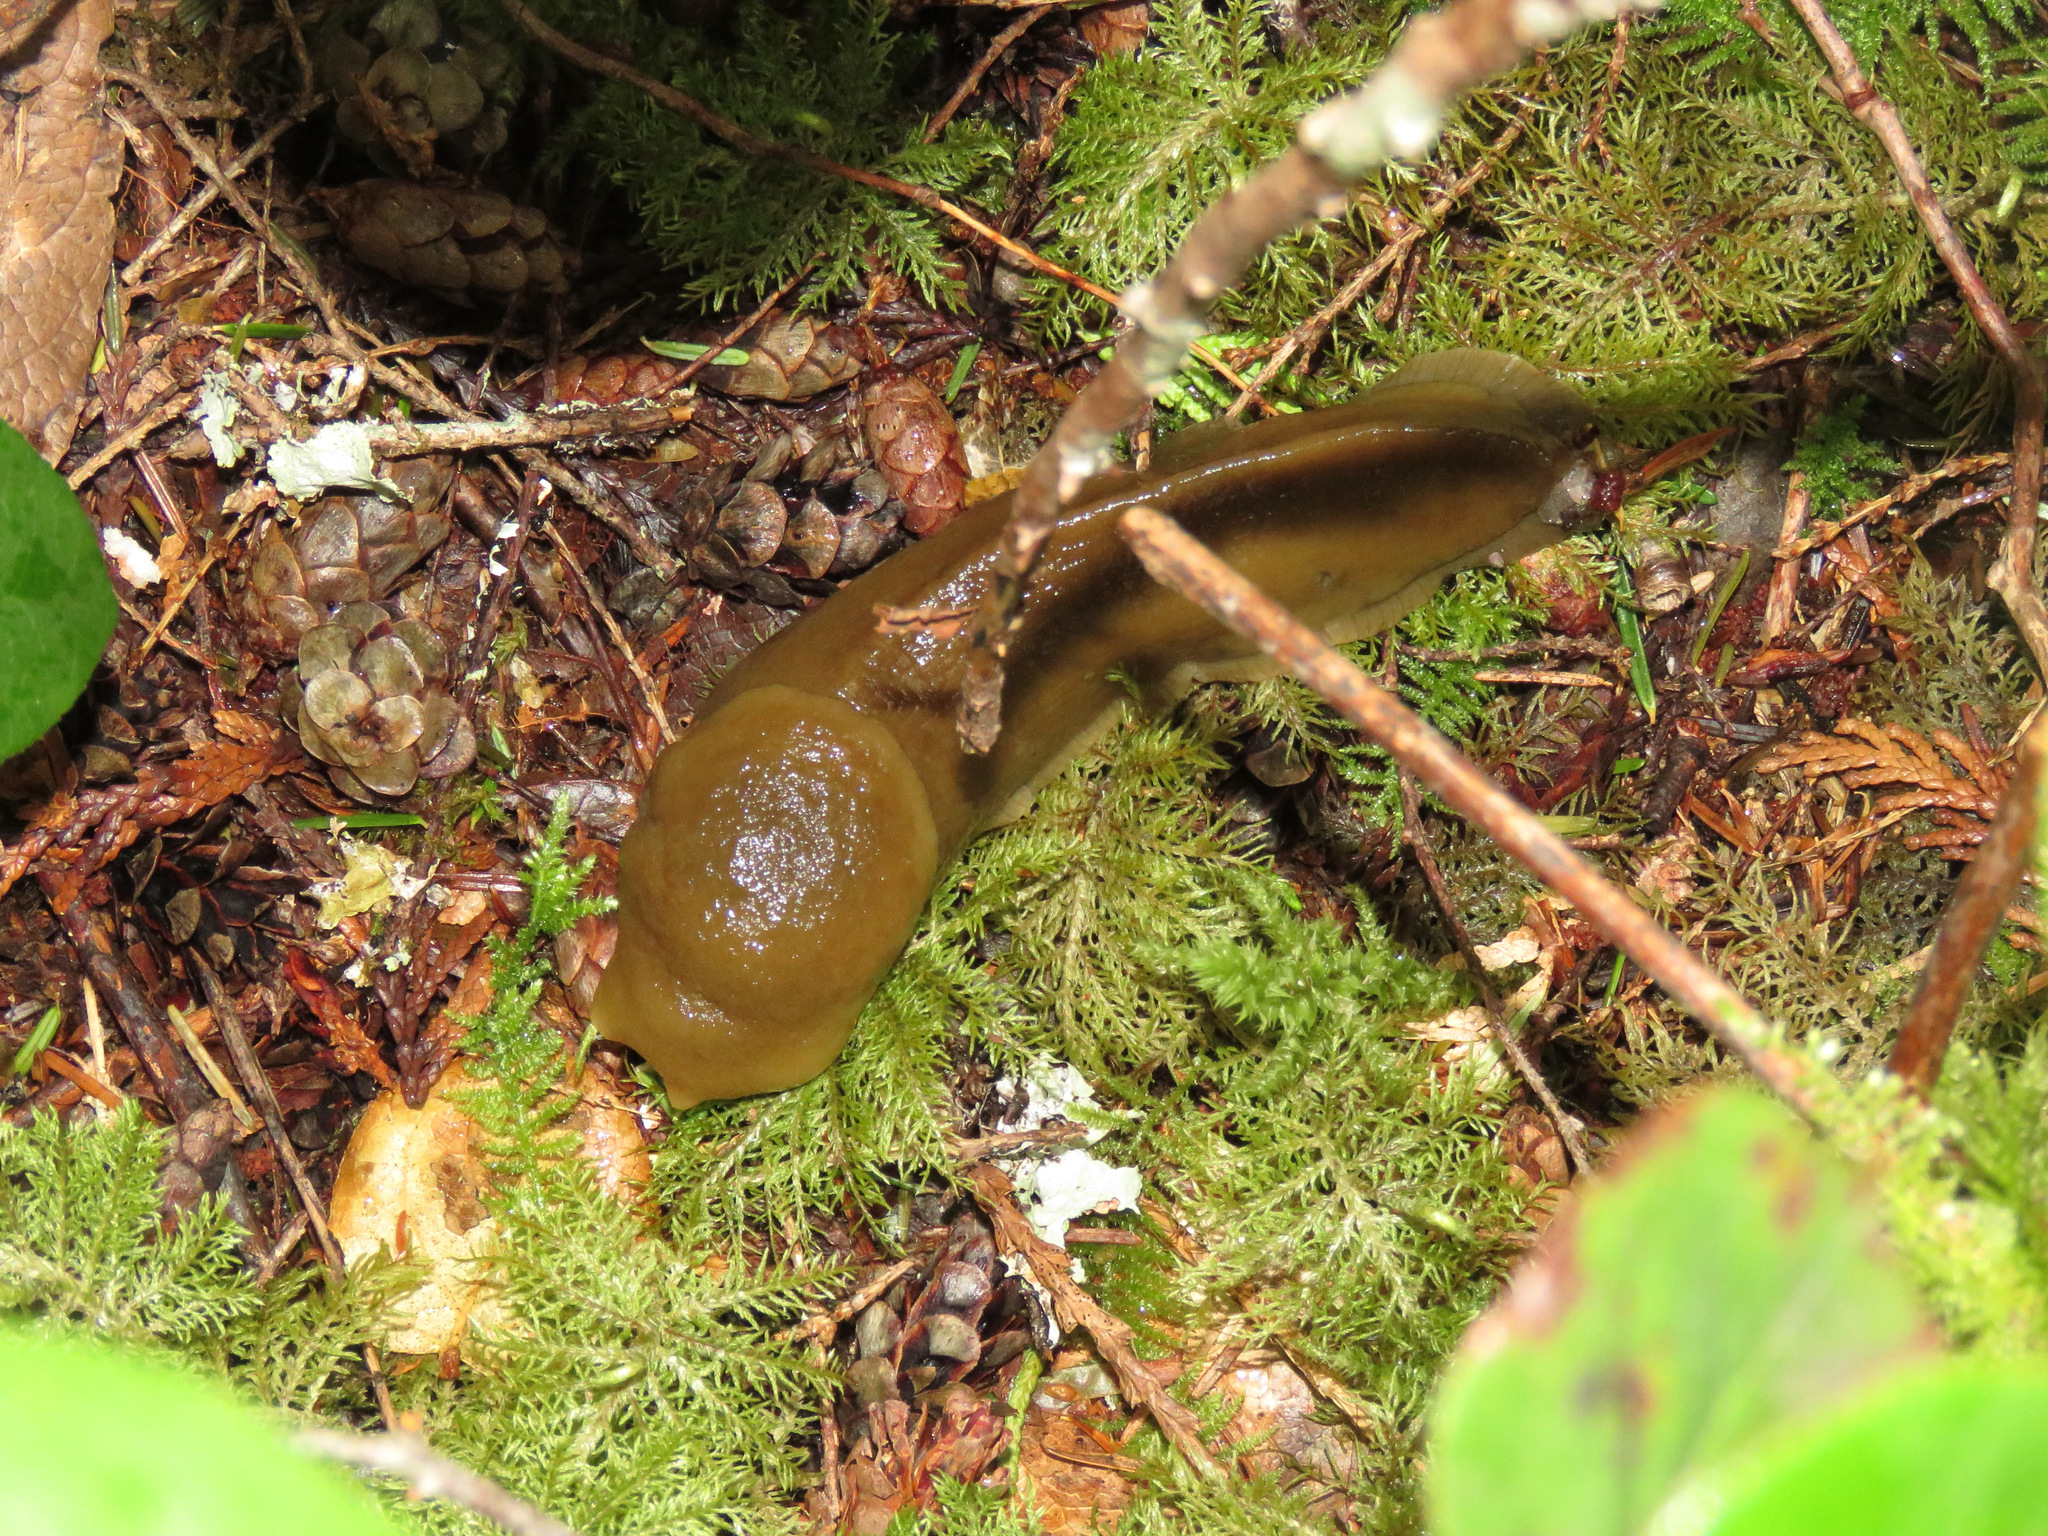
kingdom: Animalia
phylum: Mollusca
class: Gastropoda
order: Stylommatophora
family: Ariolimacidae
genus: Ariolimax
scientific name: Ariolimax columbianus
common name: Pacific banana slug
